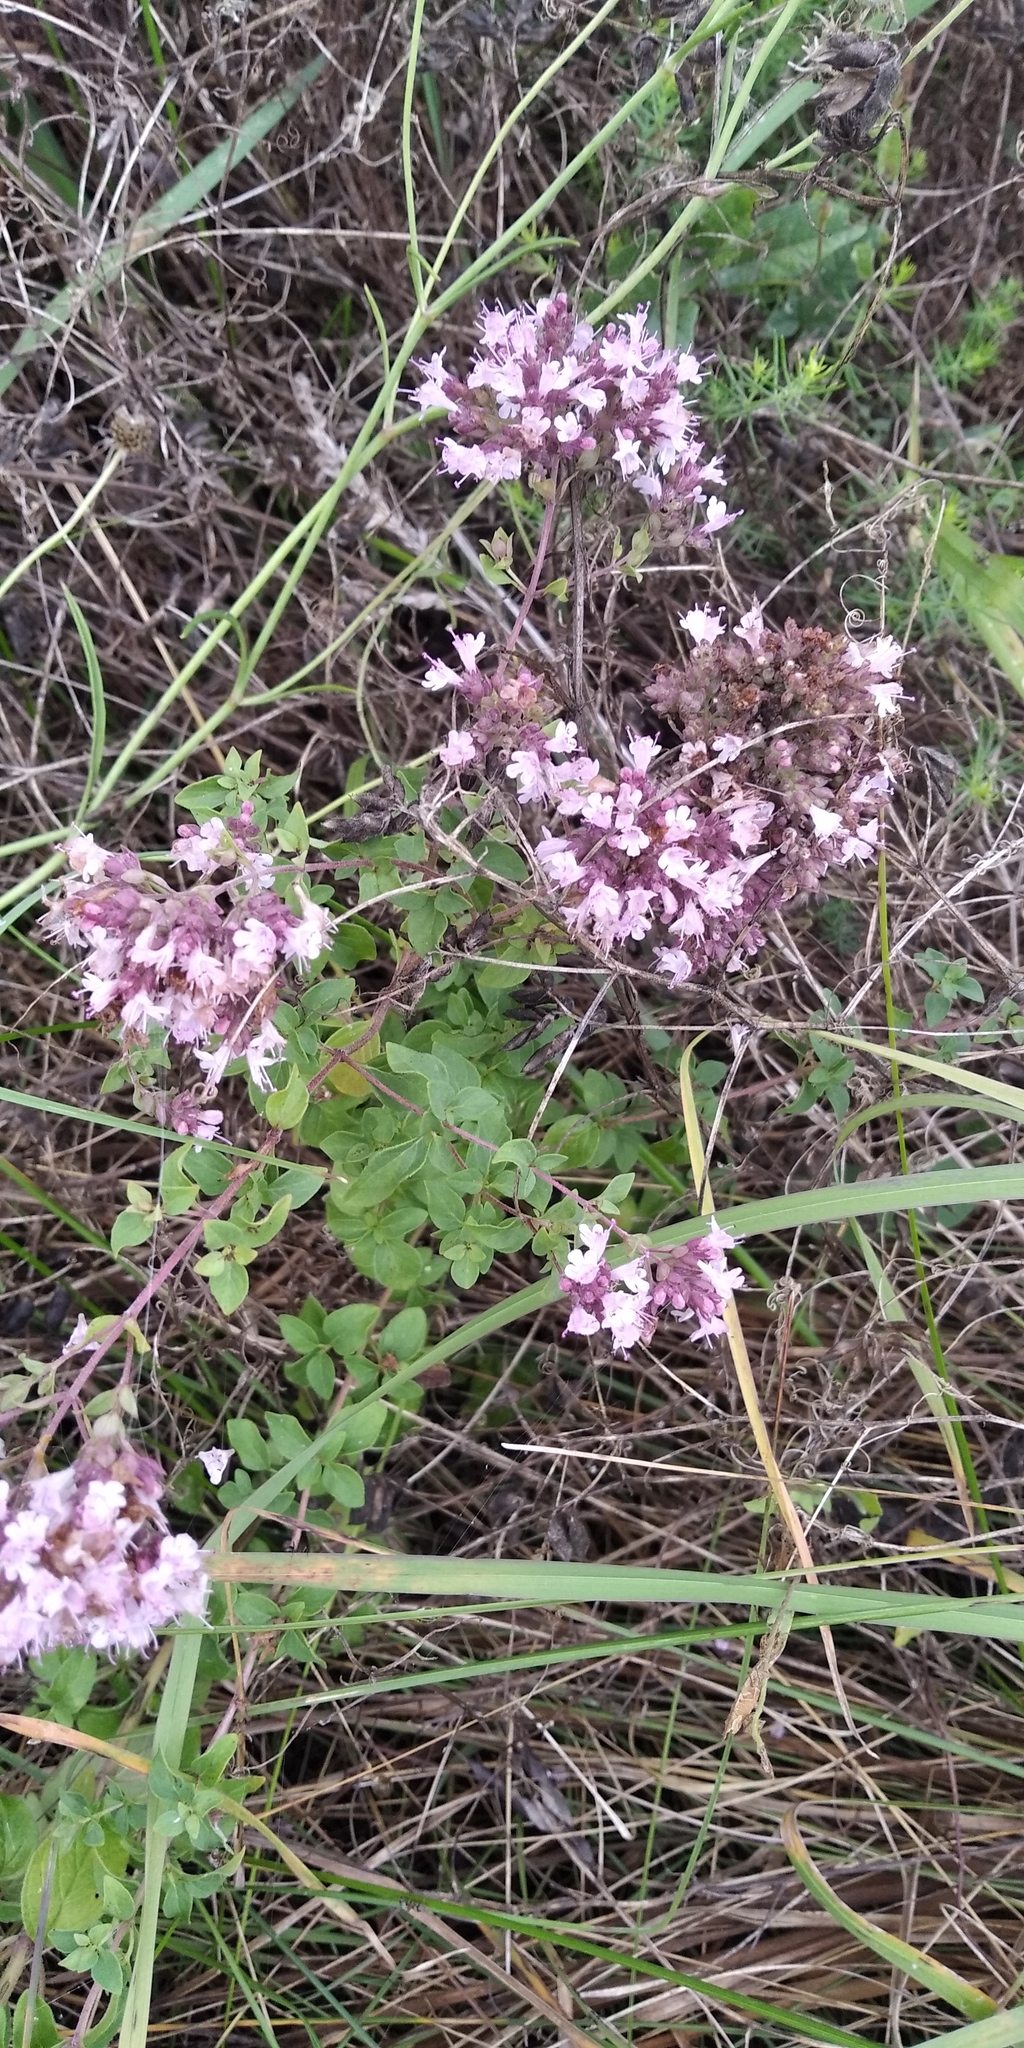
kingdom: Plantae
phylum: Tracheophyta
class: Magnoliopsida
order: Lamiales
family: Lamiaceae
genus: Origanum
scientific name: Origanum vulgare
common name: Wild marjoram
